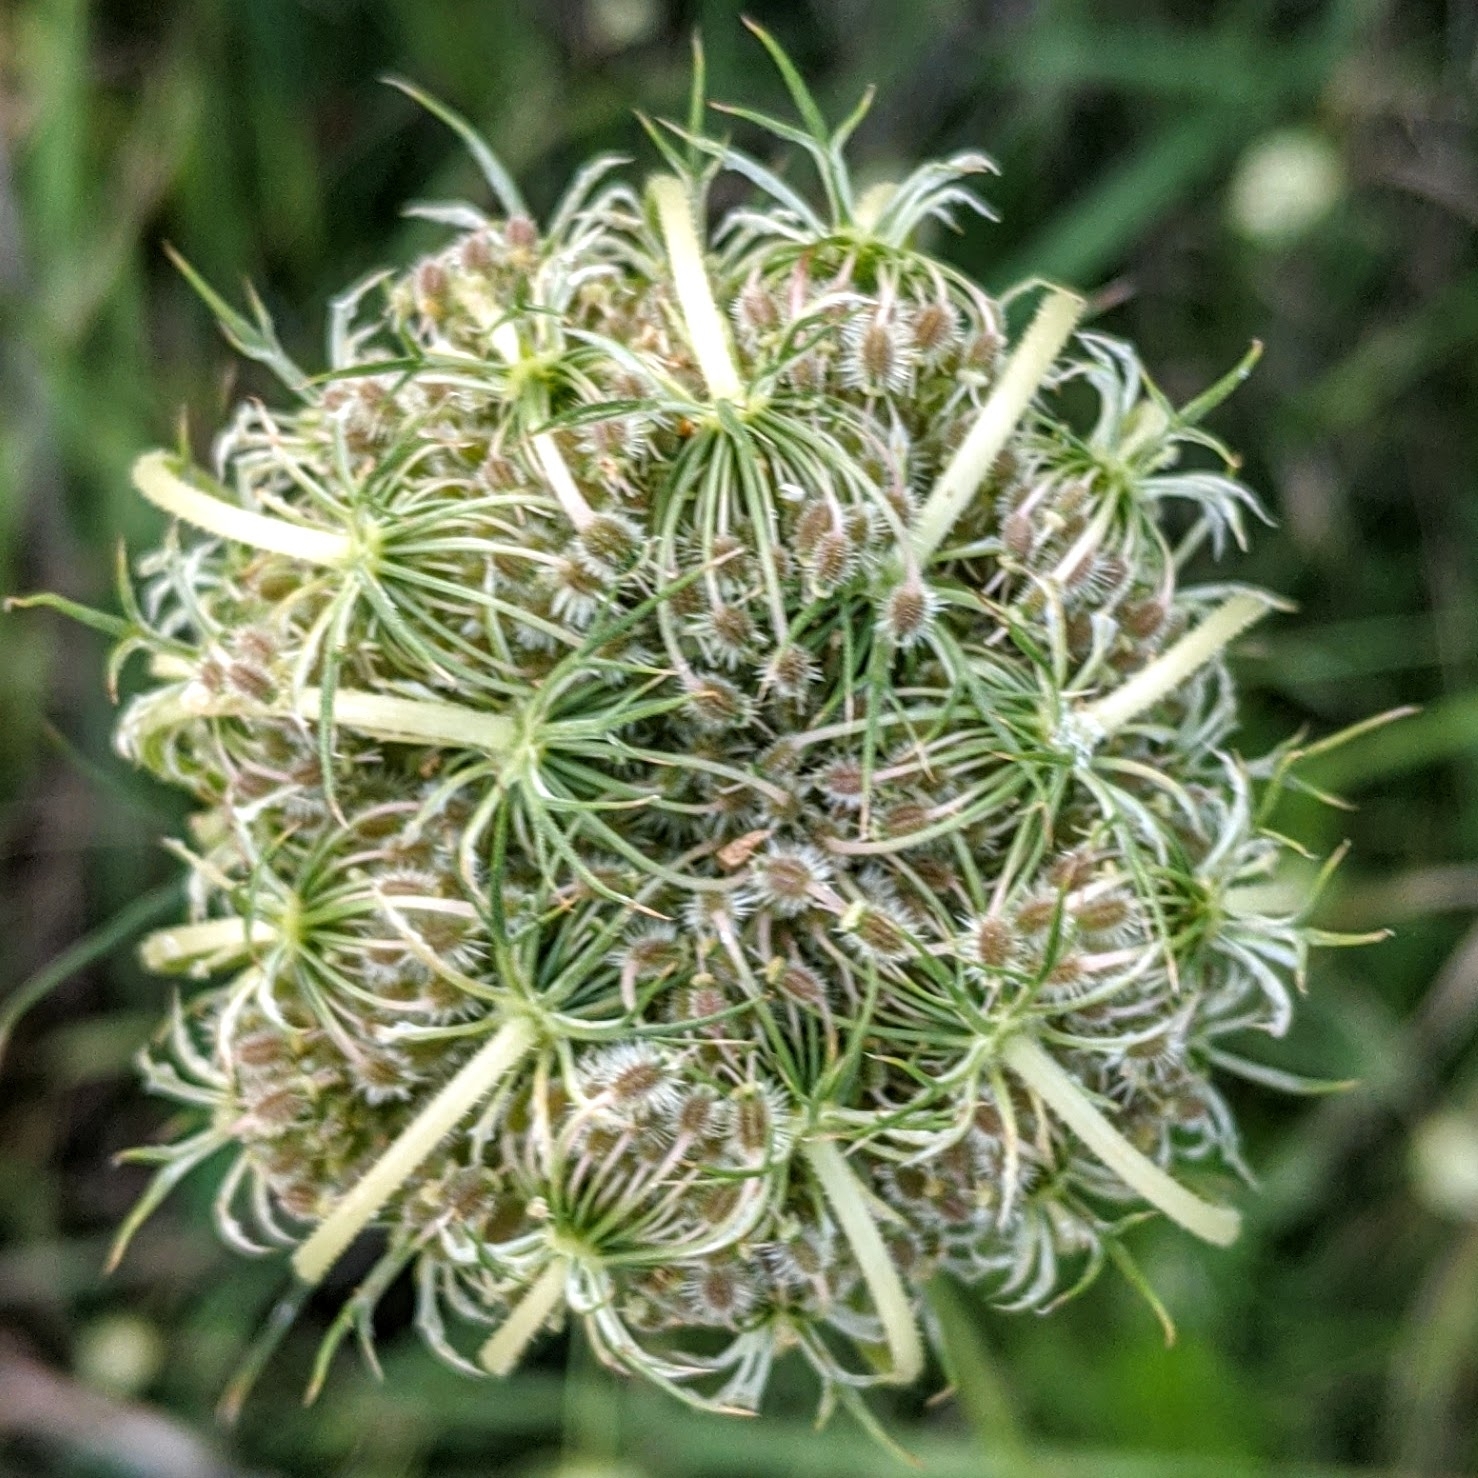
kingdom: Plantae
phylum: Tracheophyta
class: Magnoliopsida
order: Apiales
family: Apiaceae
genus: Daucus
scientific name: Daucus carota
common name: Wild carrot
